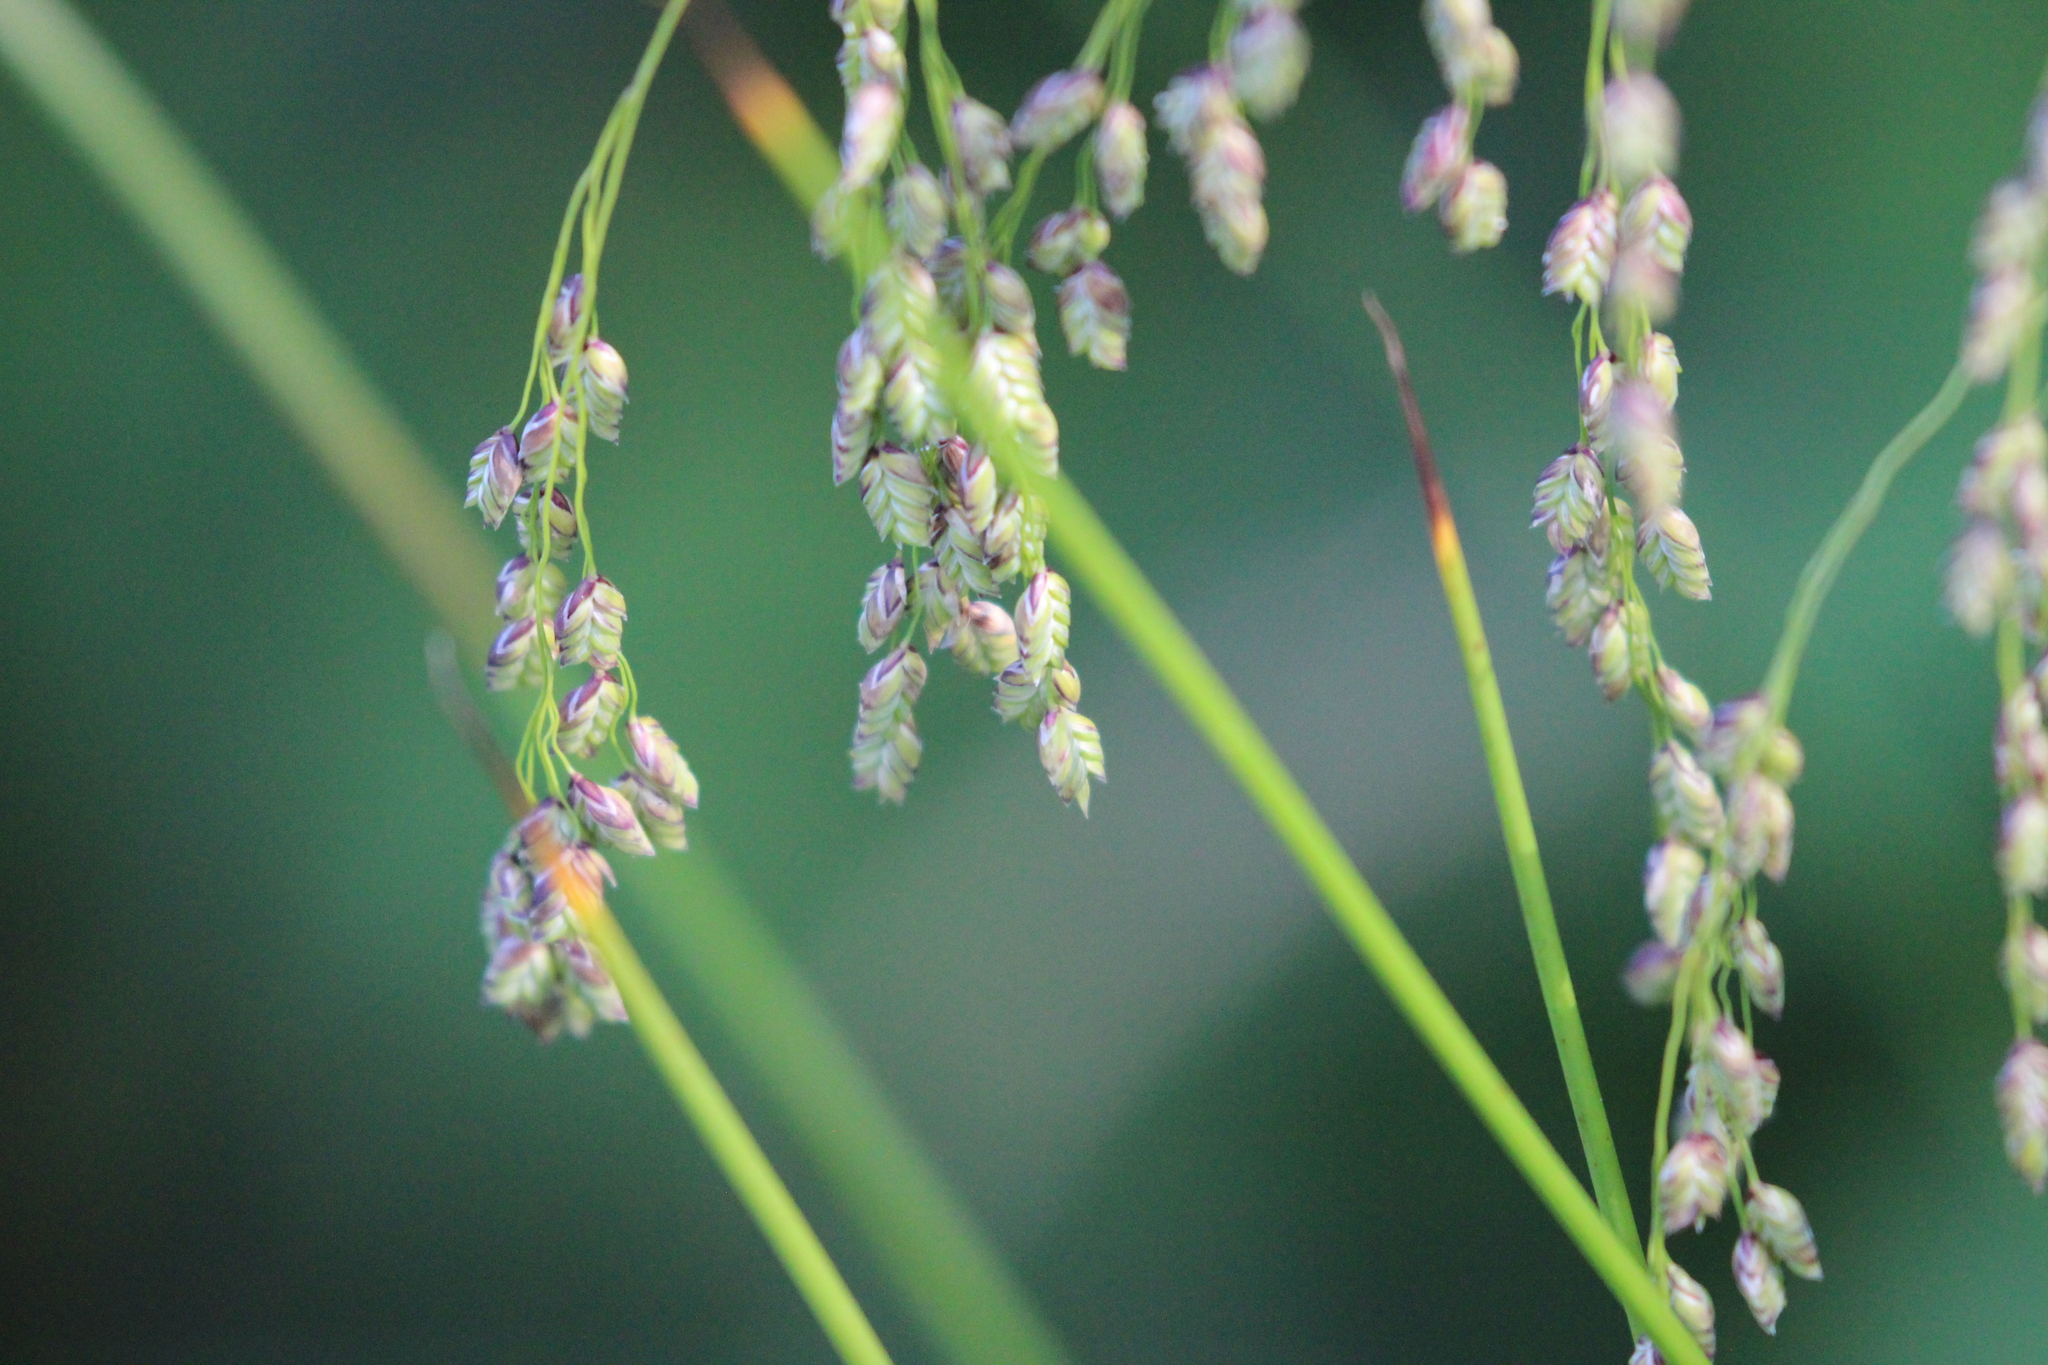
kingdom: Plantae
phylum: Tracheophyta
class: Liliopsida
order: Poales
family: Poaceae
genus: Glyceria
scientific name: Glyceria canadensis
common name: Canada mannagrass
